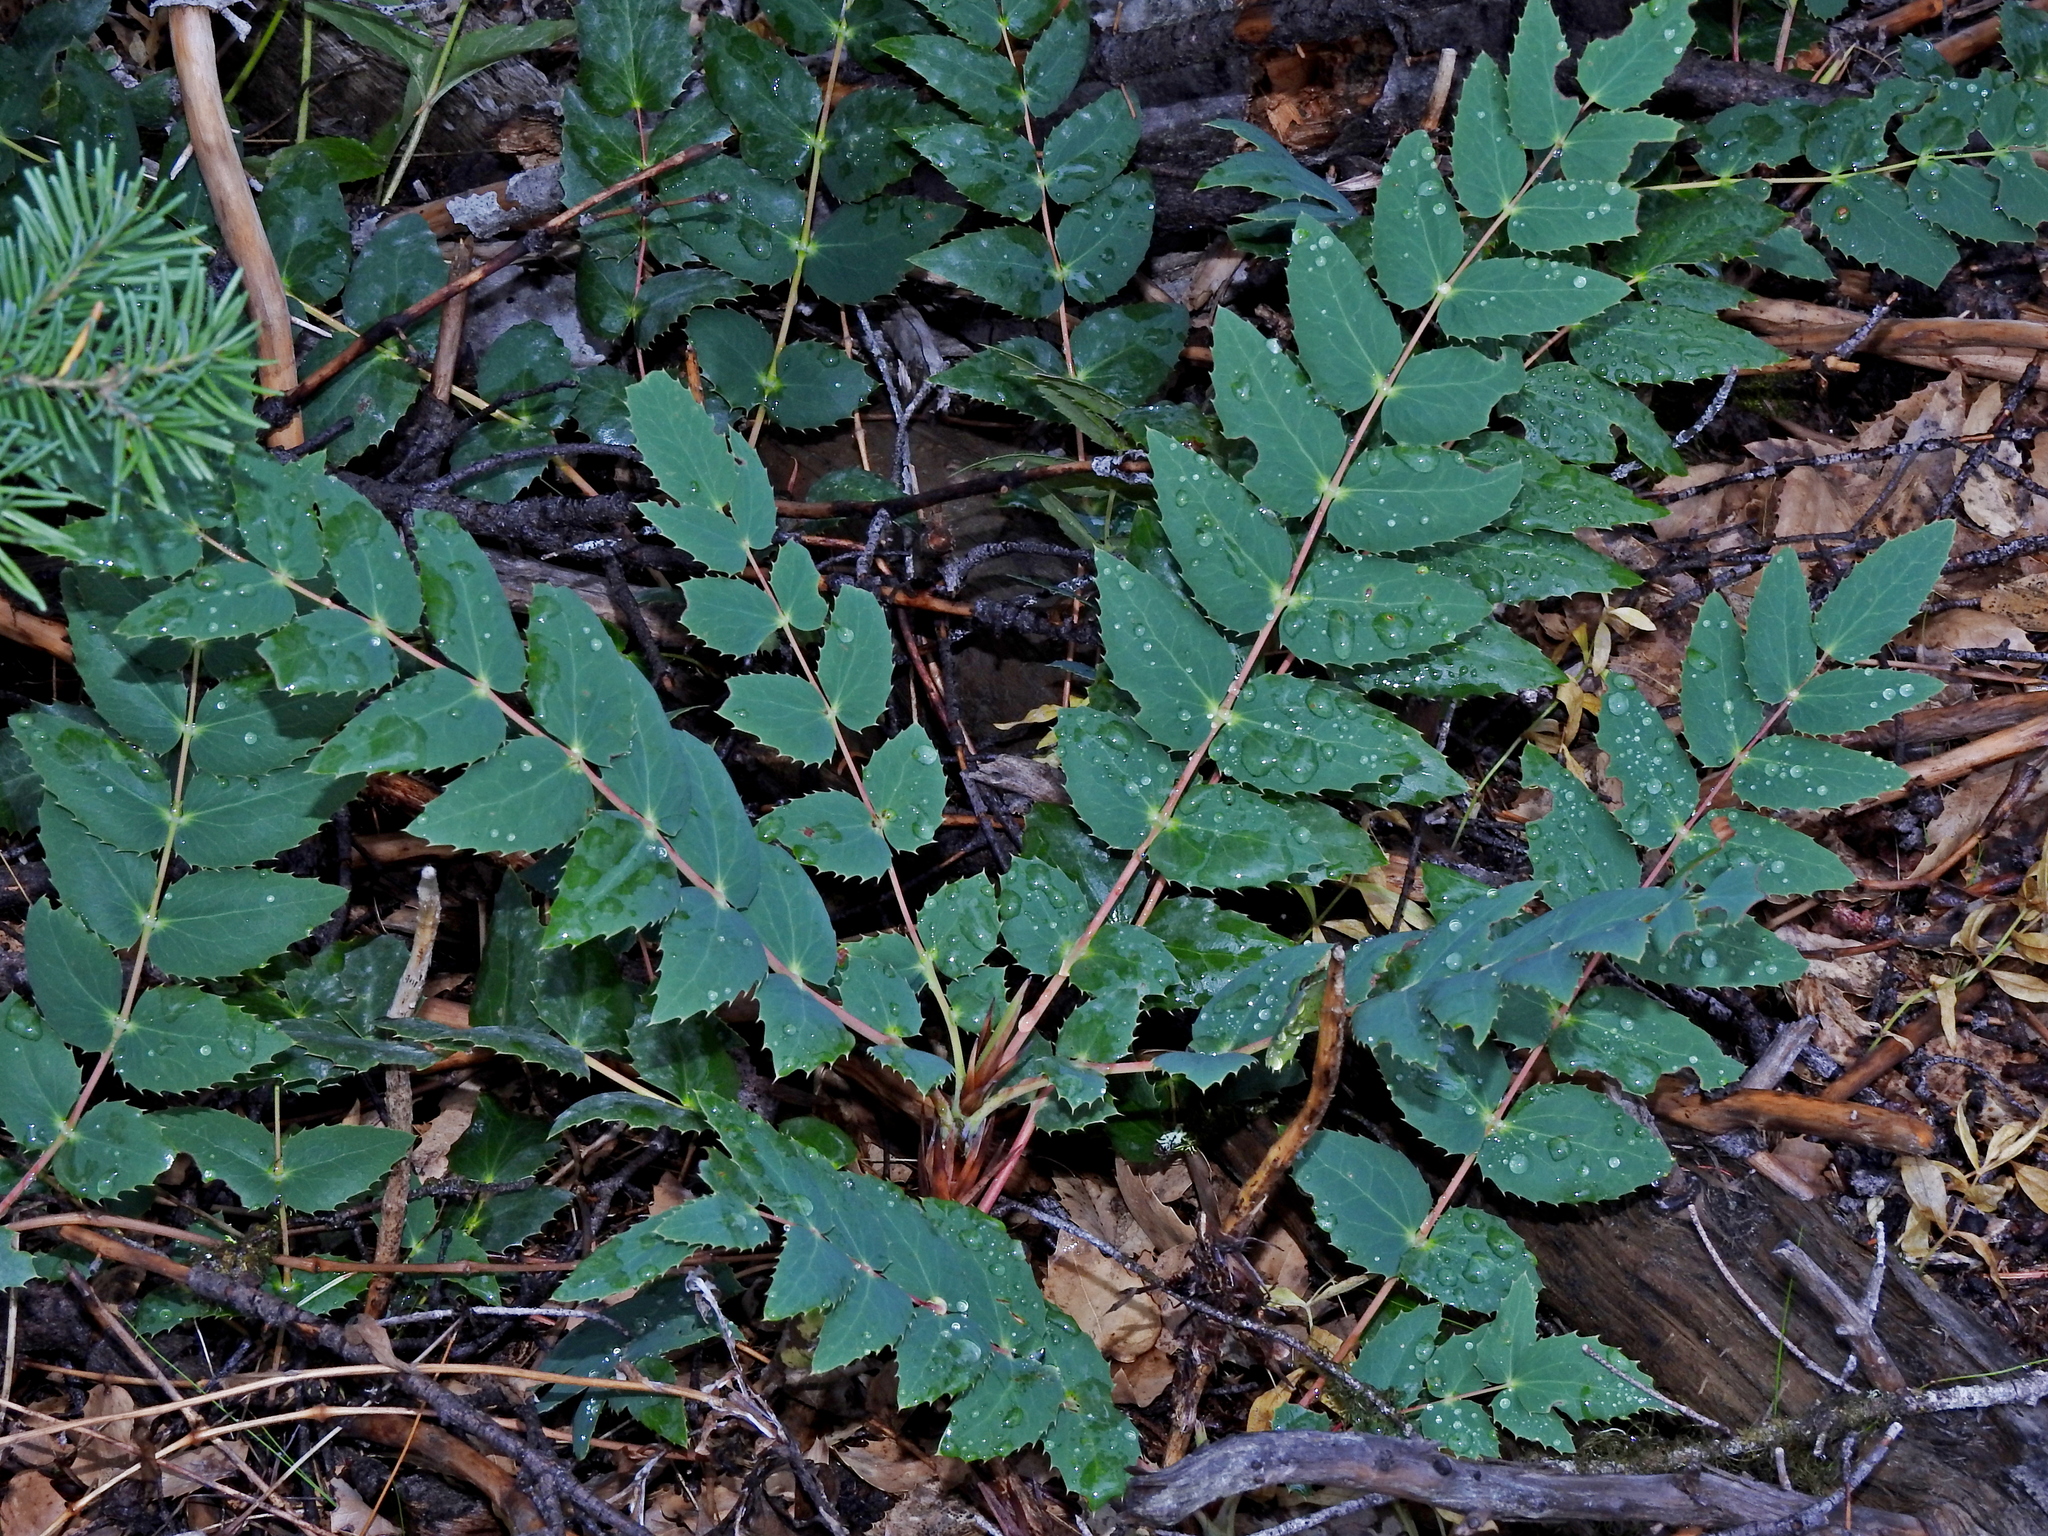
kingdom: Plantae
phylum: Tracheophyta
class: Magnoliopsida
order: Ranunculales
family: Berberidaceae
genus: Mahonia
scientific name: Mahonia nervosa
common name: Cascade oregon-grape
